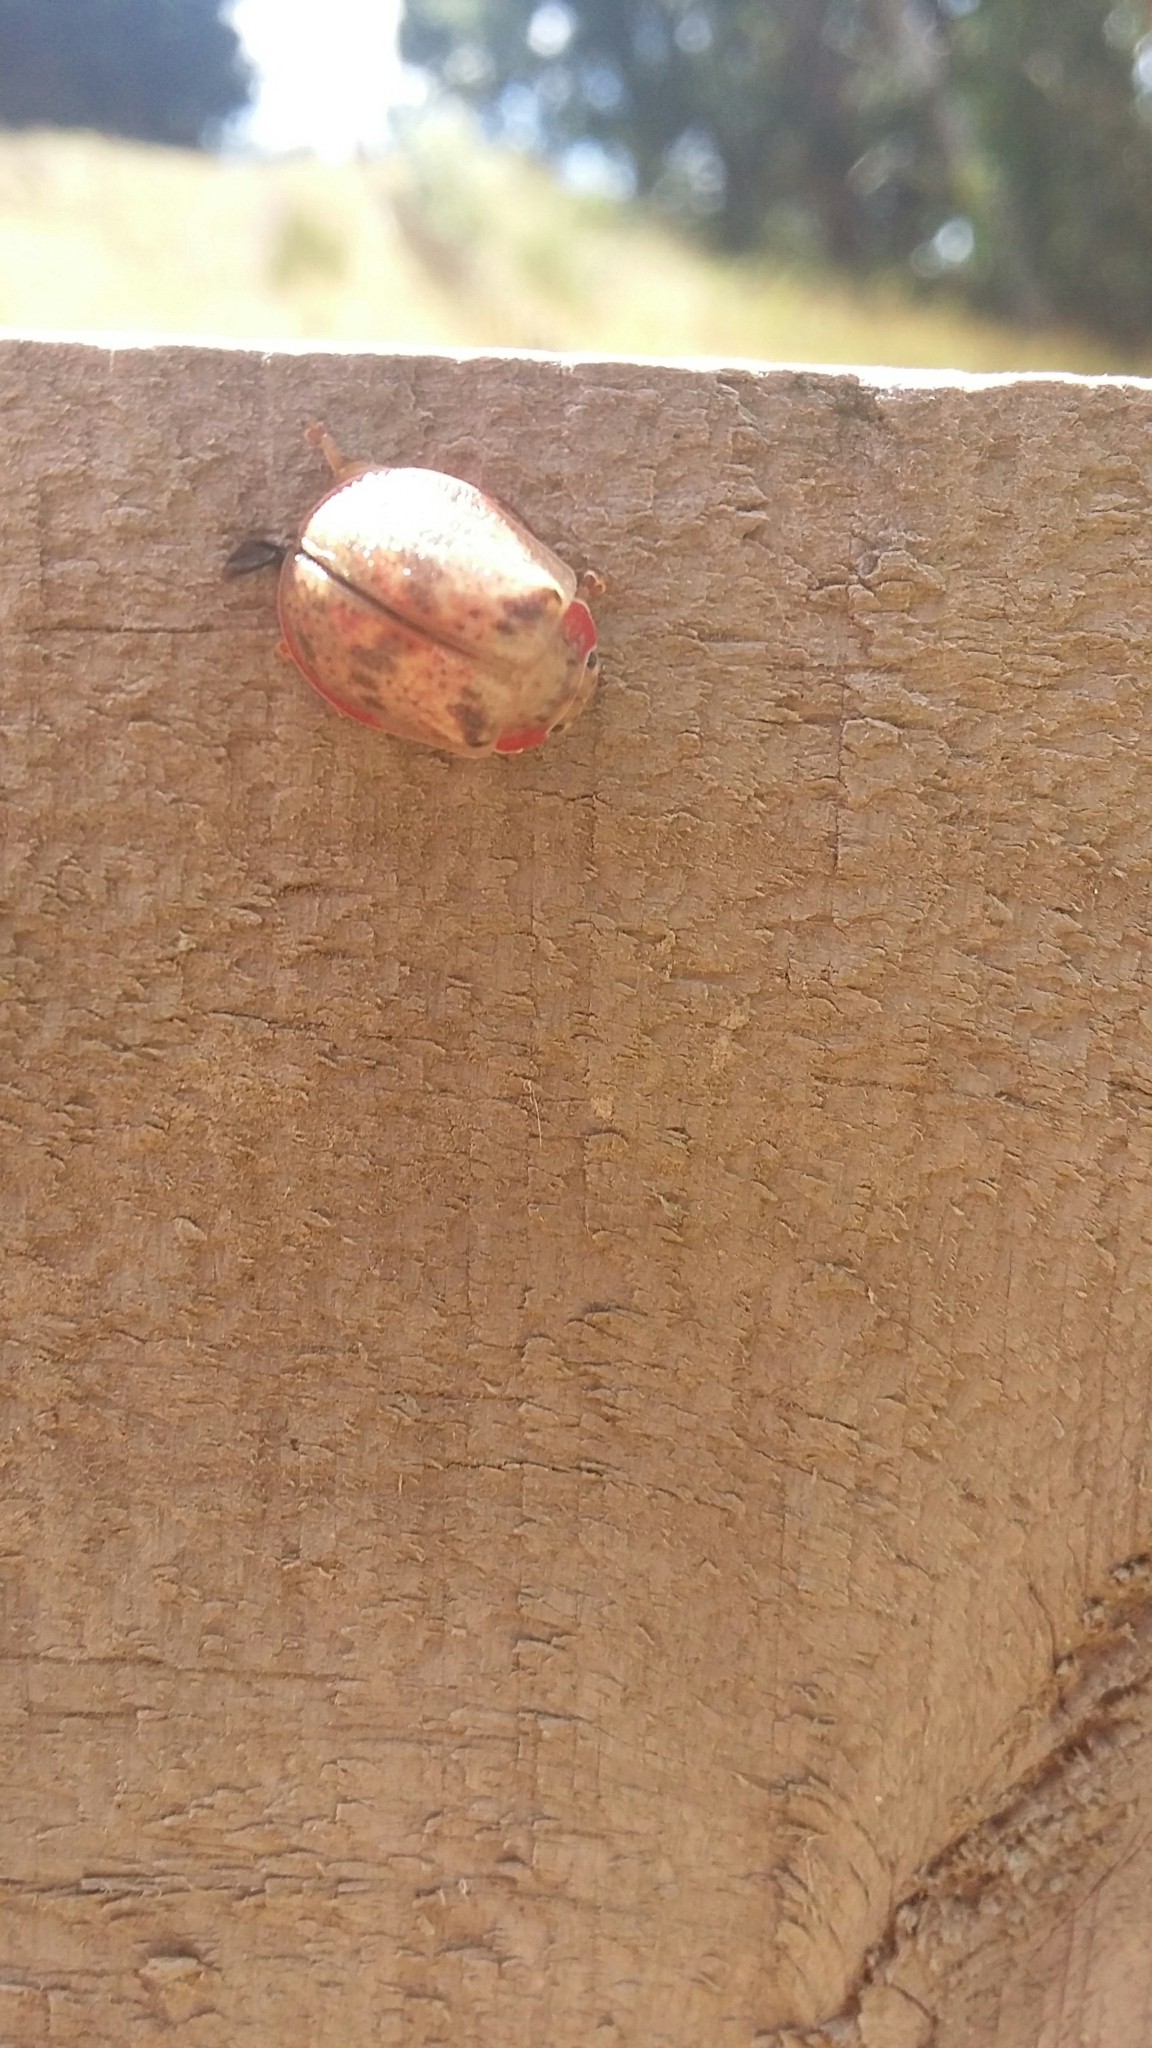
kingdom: Animalia
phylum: Arthropoda
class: Insecta
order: Coleoptera
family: Chrysomelidae
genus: Paropsis
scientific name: Paropsis charybdis
